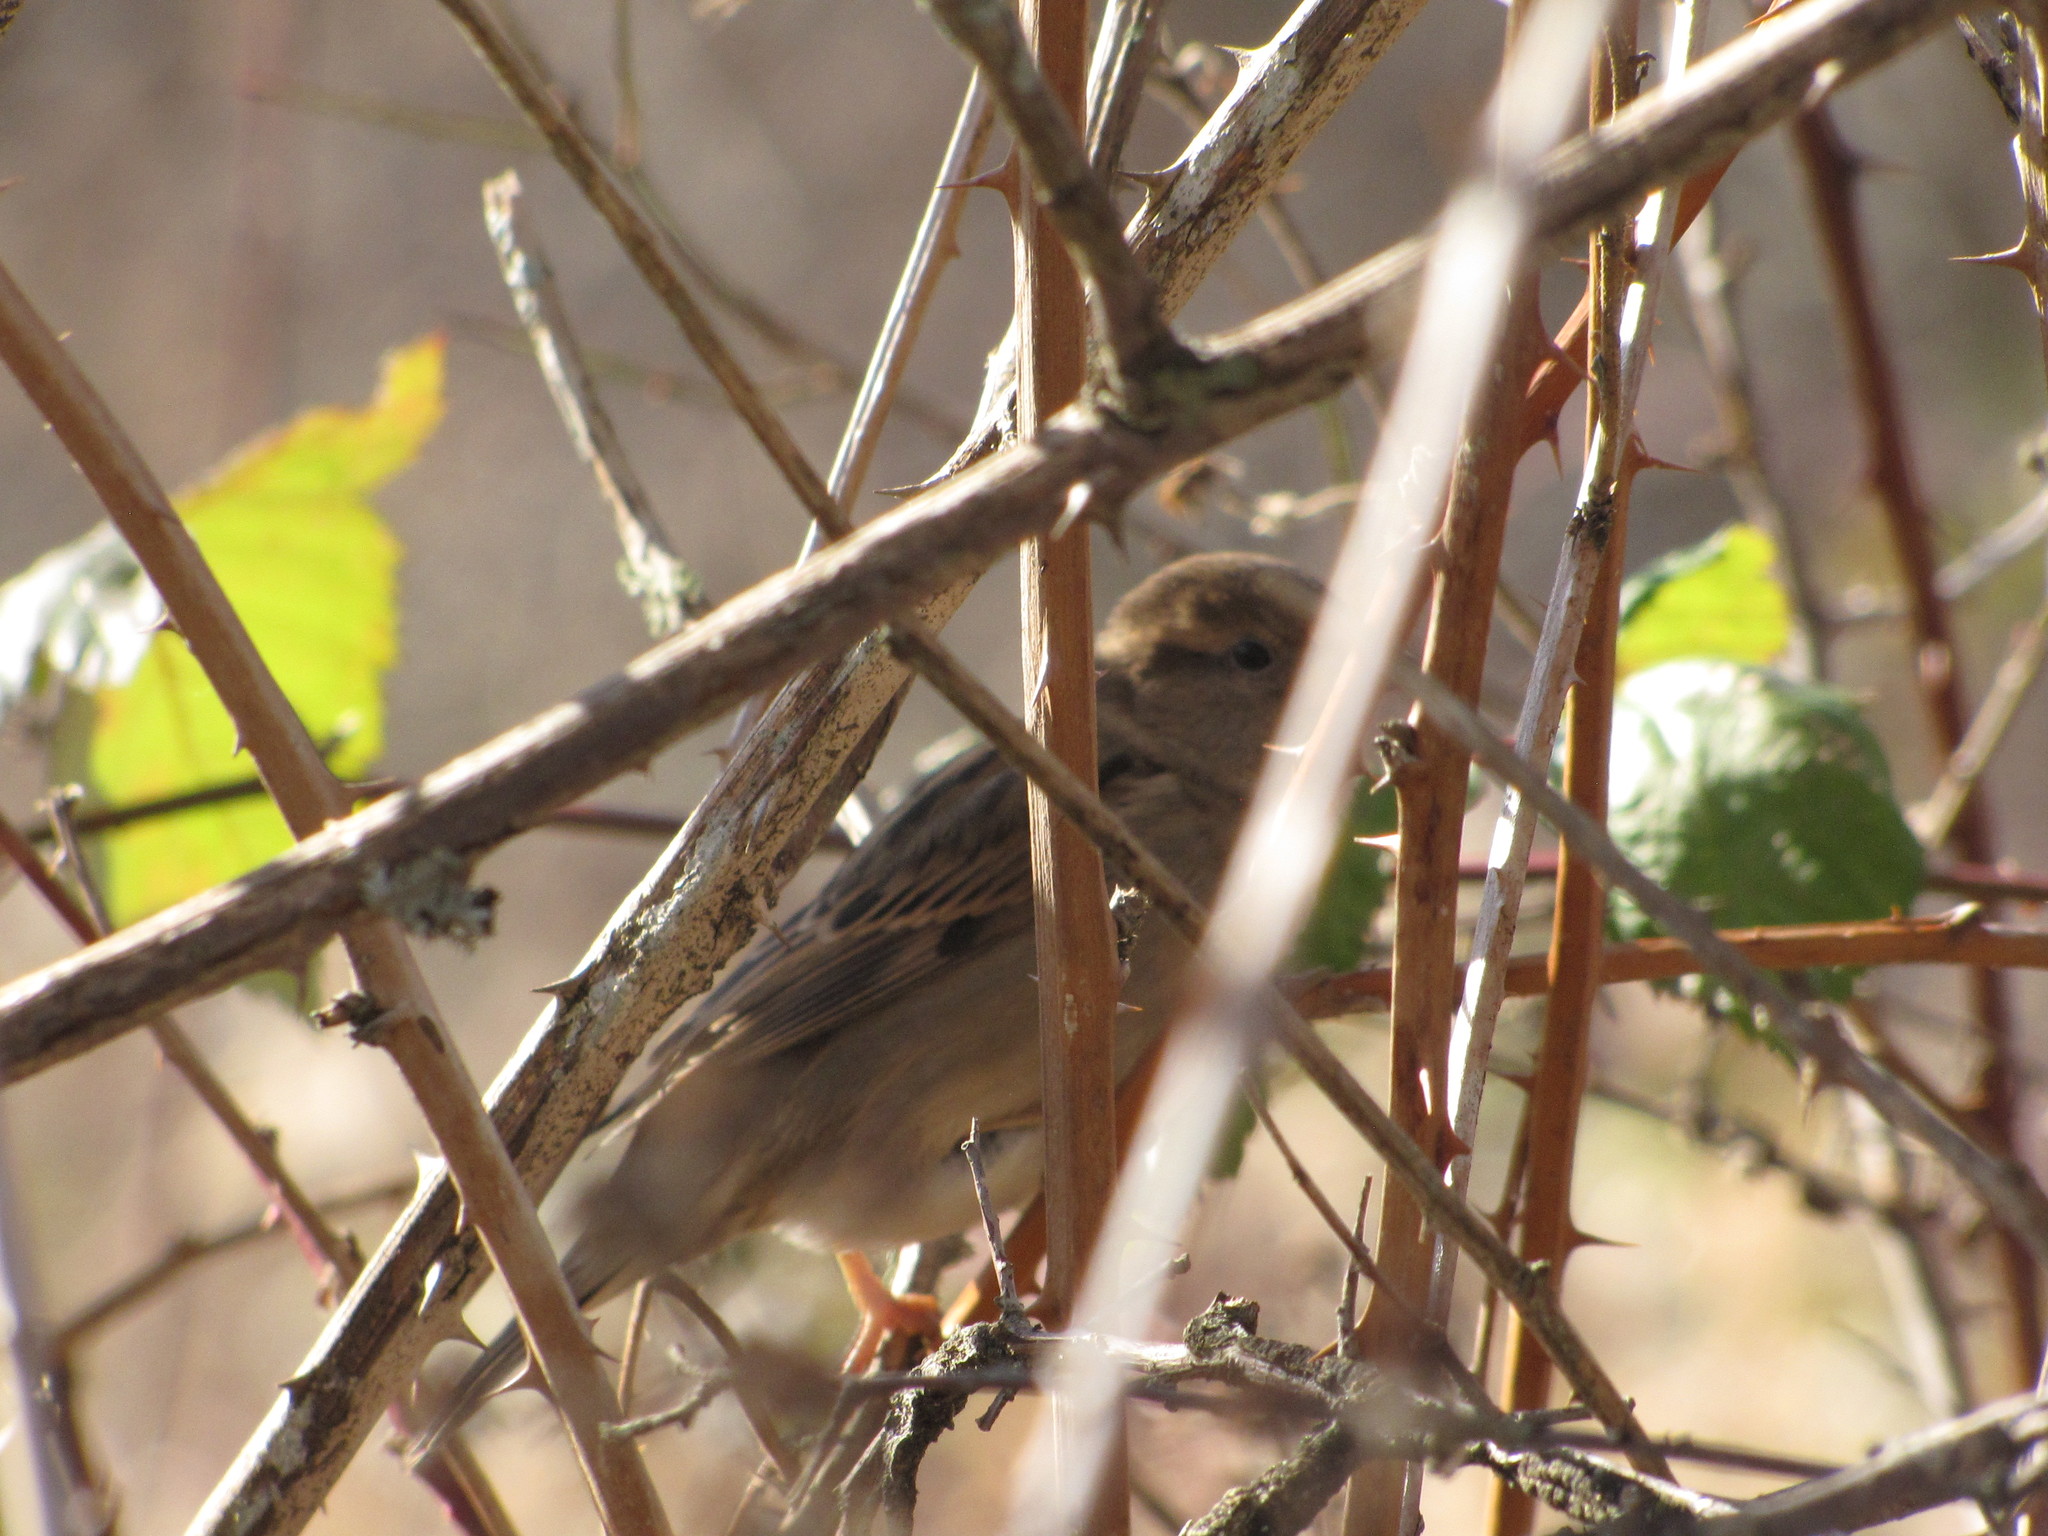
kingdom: Animalia
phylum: Chordata
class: Aves
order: Passeriformes
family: Passeridae
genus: Passer
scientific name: Passer domesticus
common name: House sparrow
